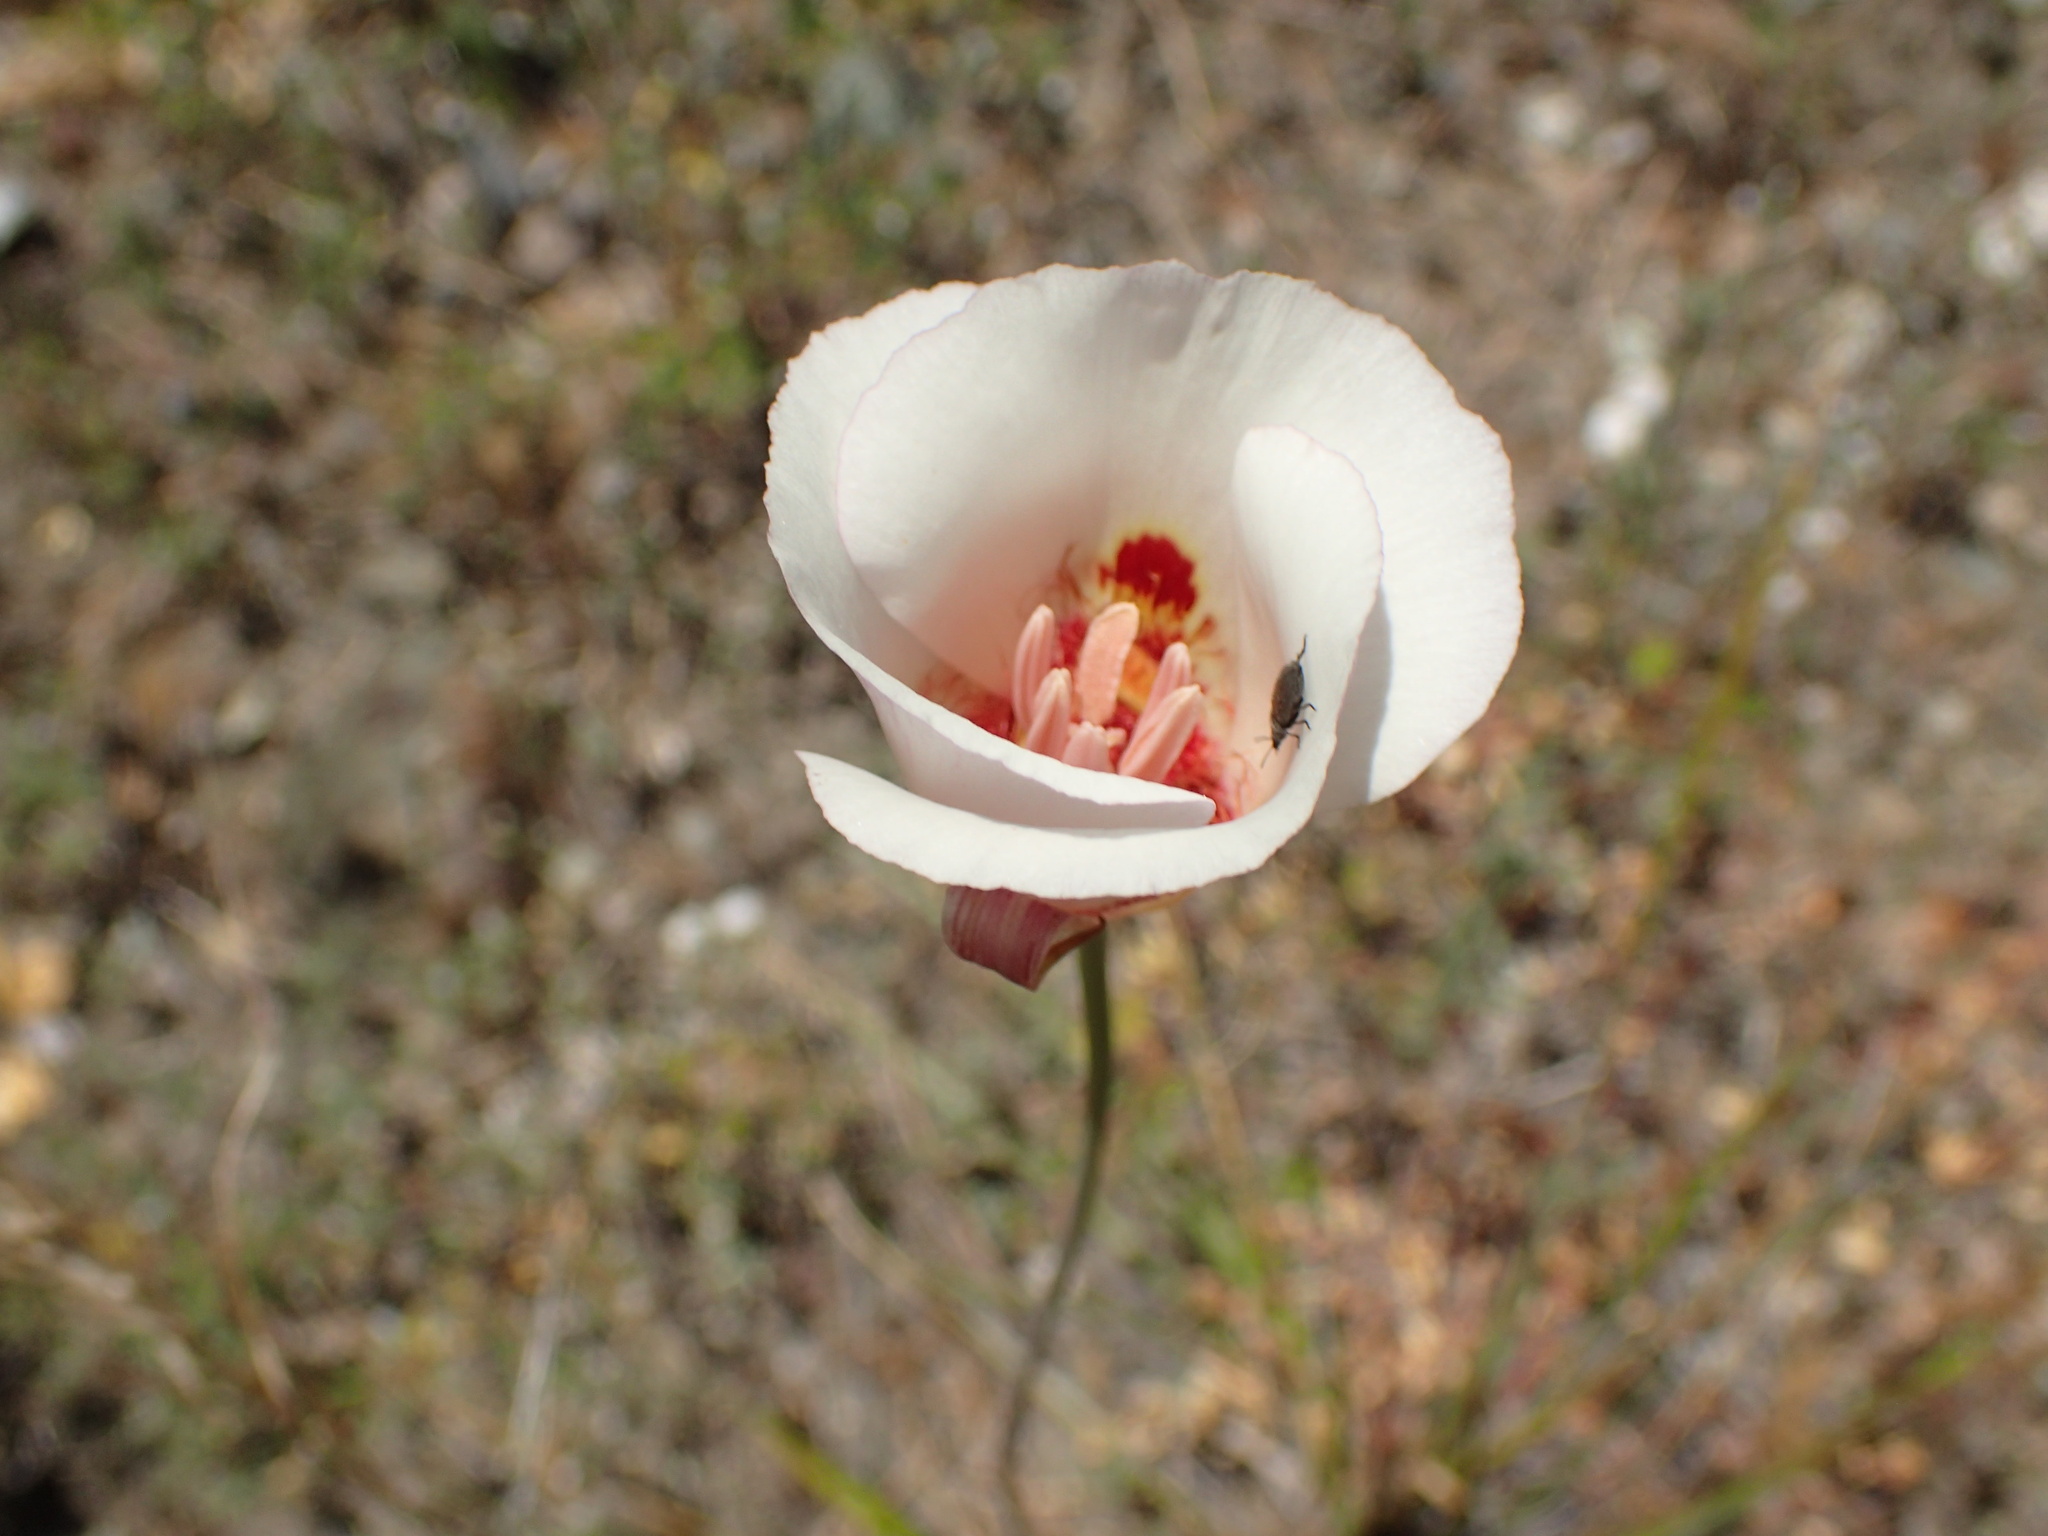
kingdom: Plantae
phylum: Tracheophyta
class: Liliopsida
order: Liliales
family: Liliaceae
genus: Calochortus
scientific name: Calochortus venustus
